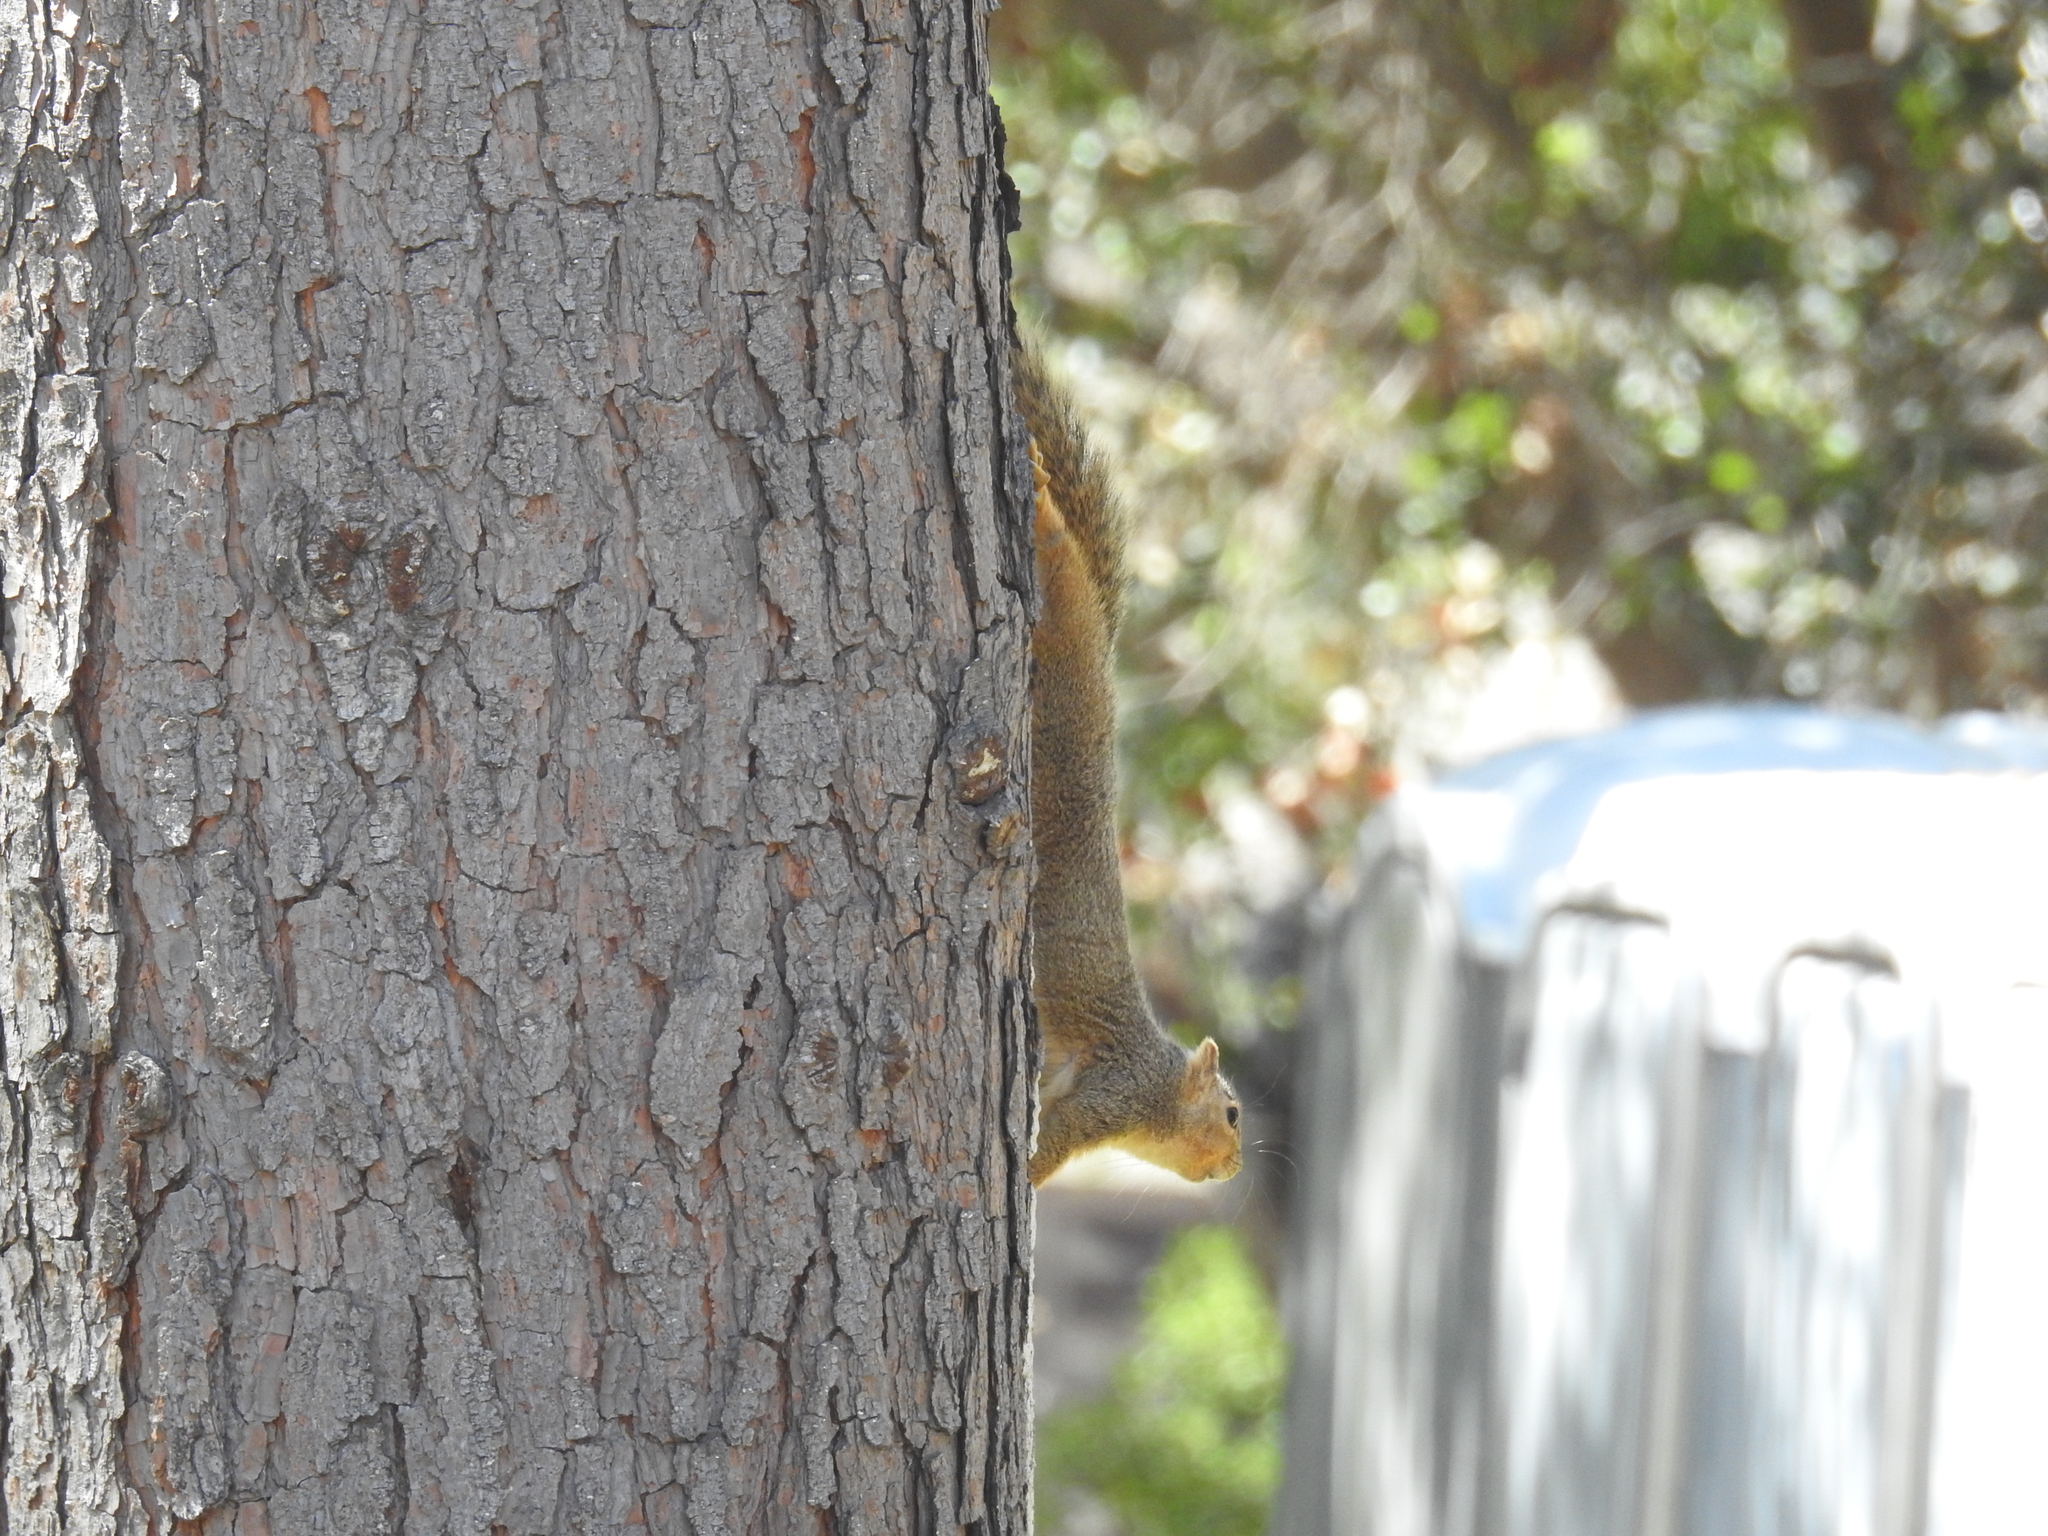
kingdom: Animalia
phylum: Chordata
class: Mammalia
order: Rodentia
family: Sciuridae
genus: Sciurus
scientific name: Sciurus niger
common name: Fox squirrel
